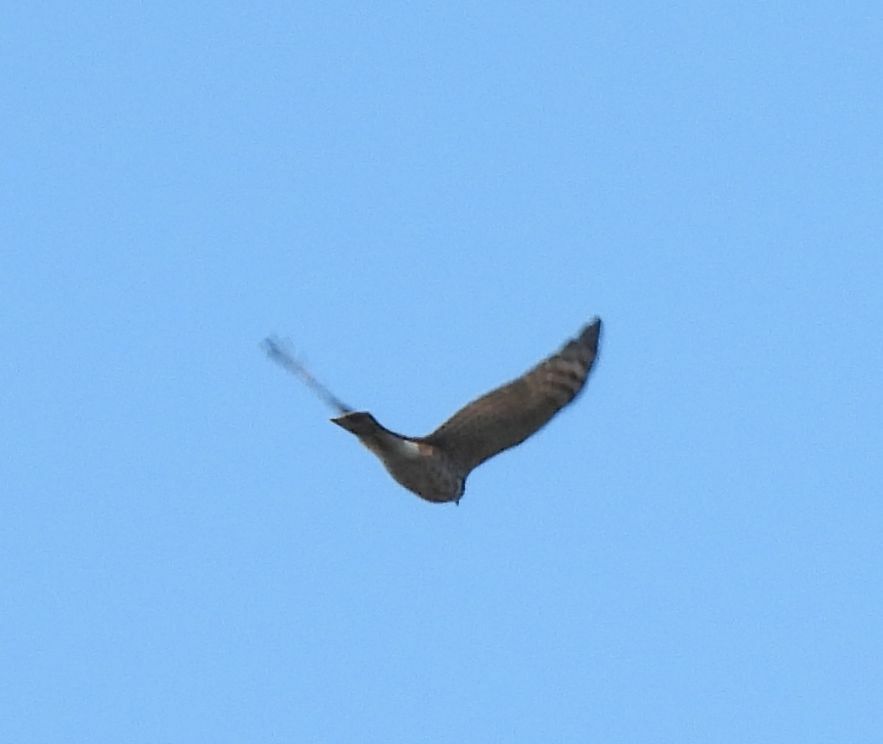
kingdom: Animalia
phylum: Chordata
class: Aves
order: Accipitriformes
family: Accipitridae
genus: Accipiter
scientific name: Accipiter striatus
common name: Sharp-shinned hawk
